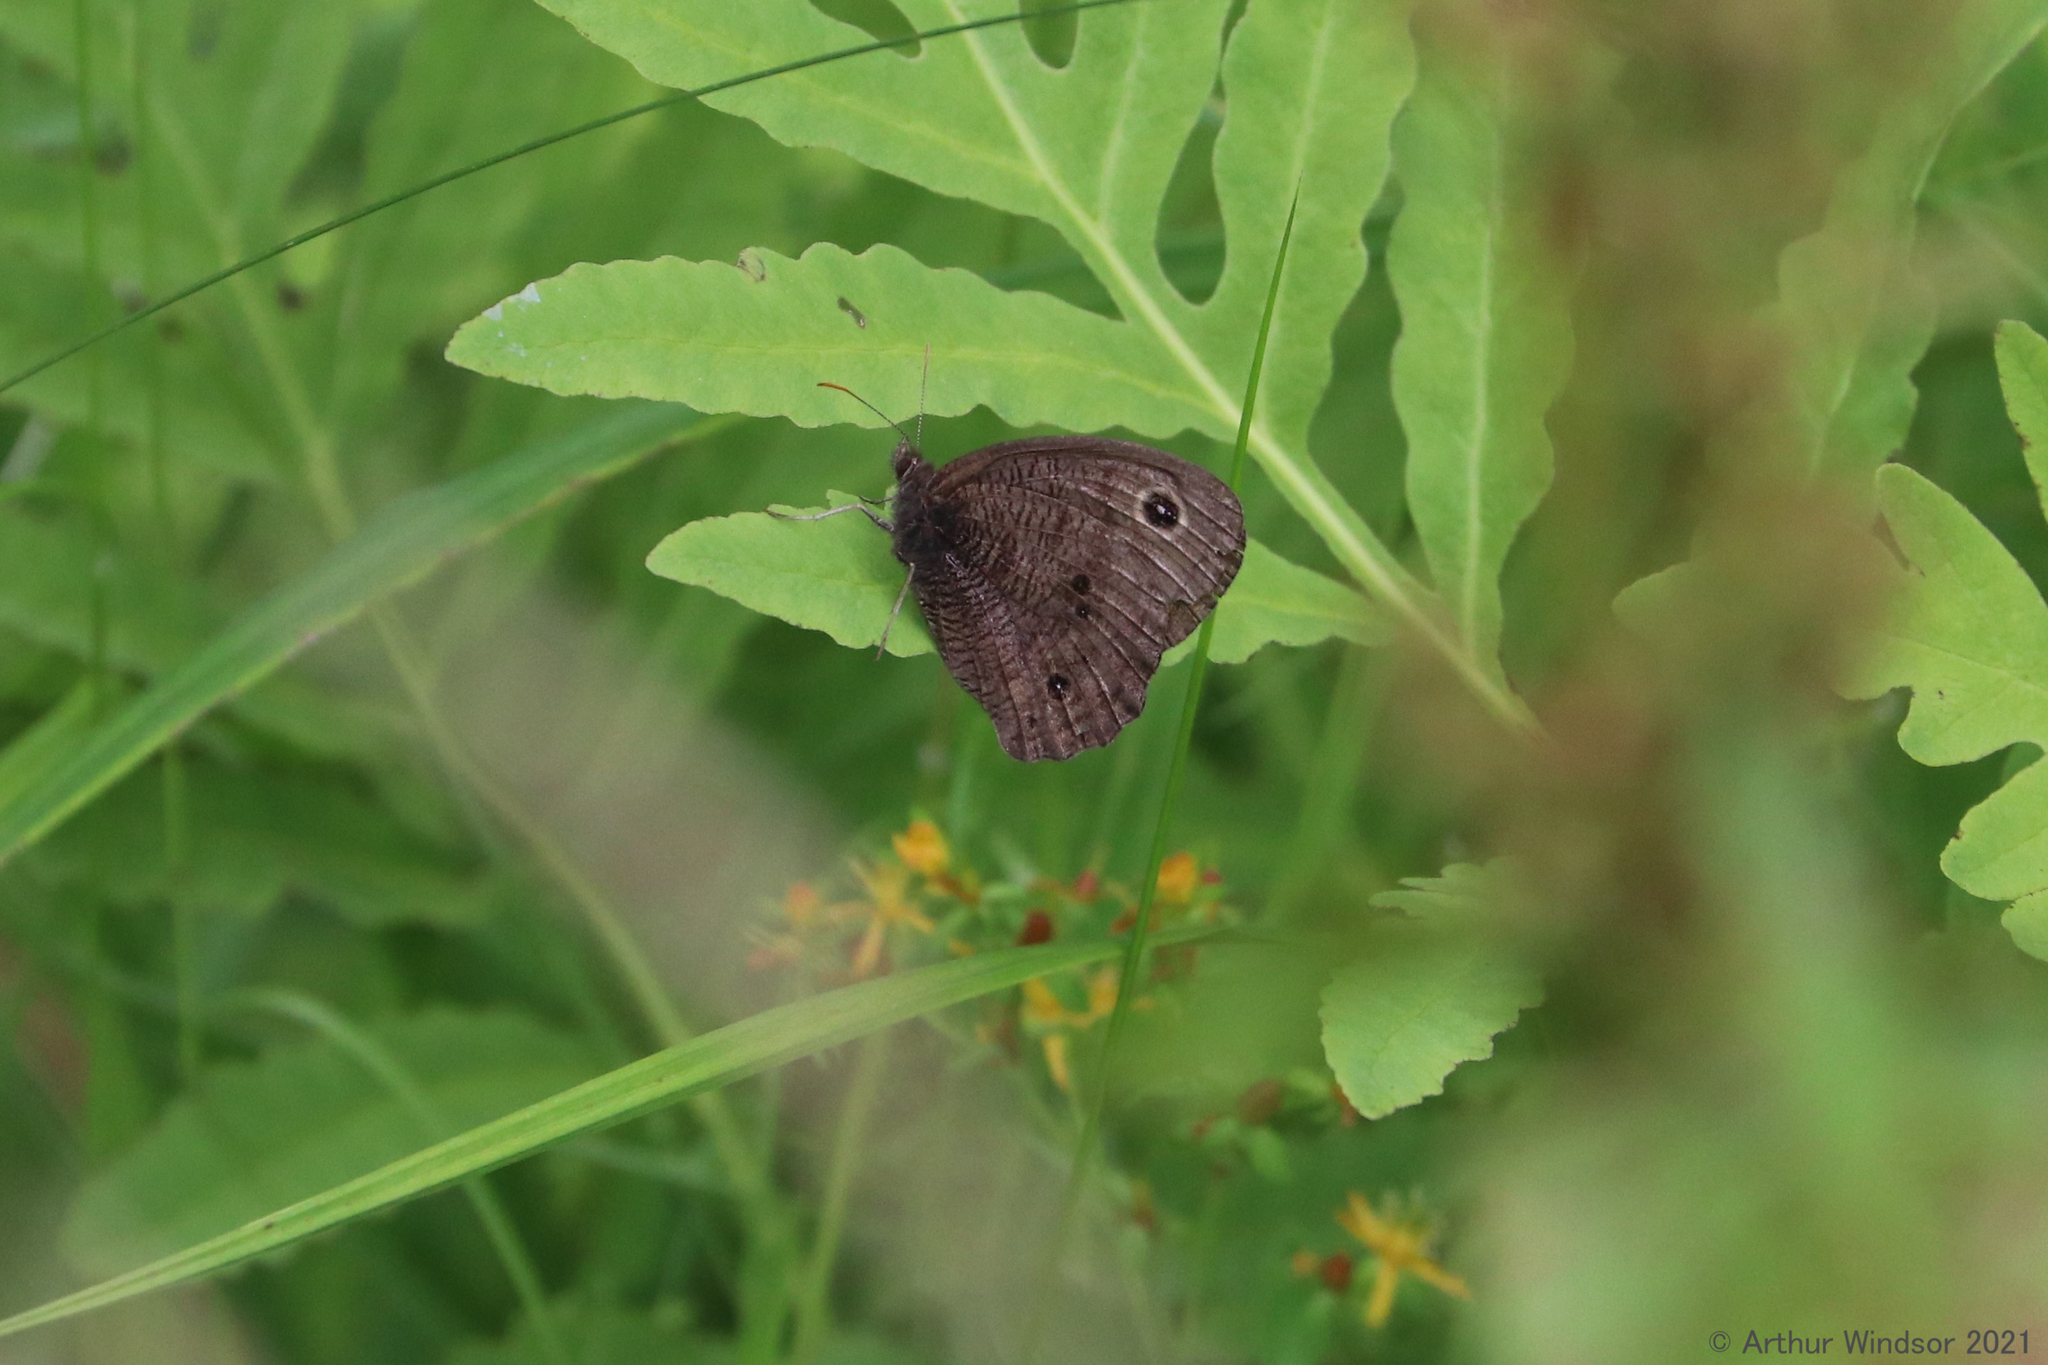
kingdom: Animalia
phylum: Arthropoda
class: Insecta
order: Lepidoptera
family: Nymphalidae
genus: Cercyonis
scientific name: Cercyonis pegala
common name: Common wood-nymph
